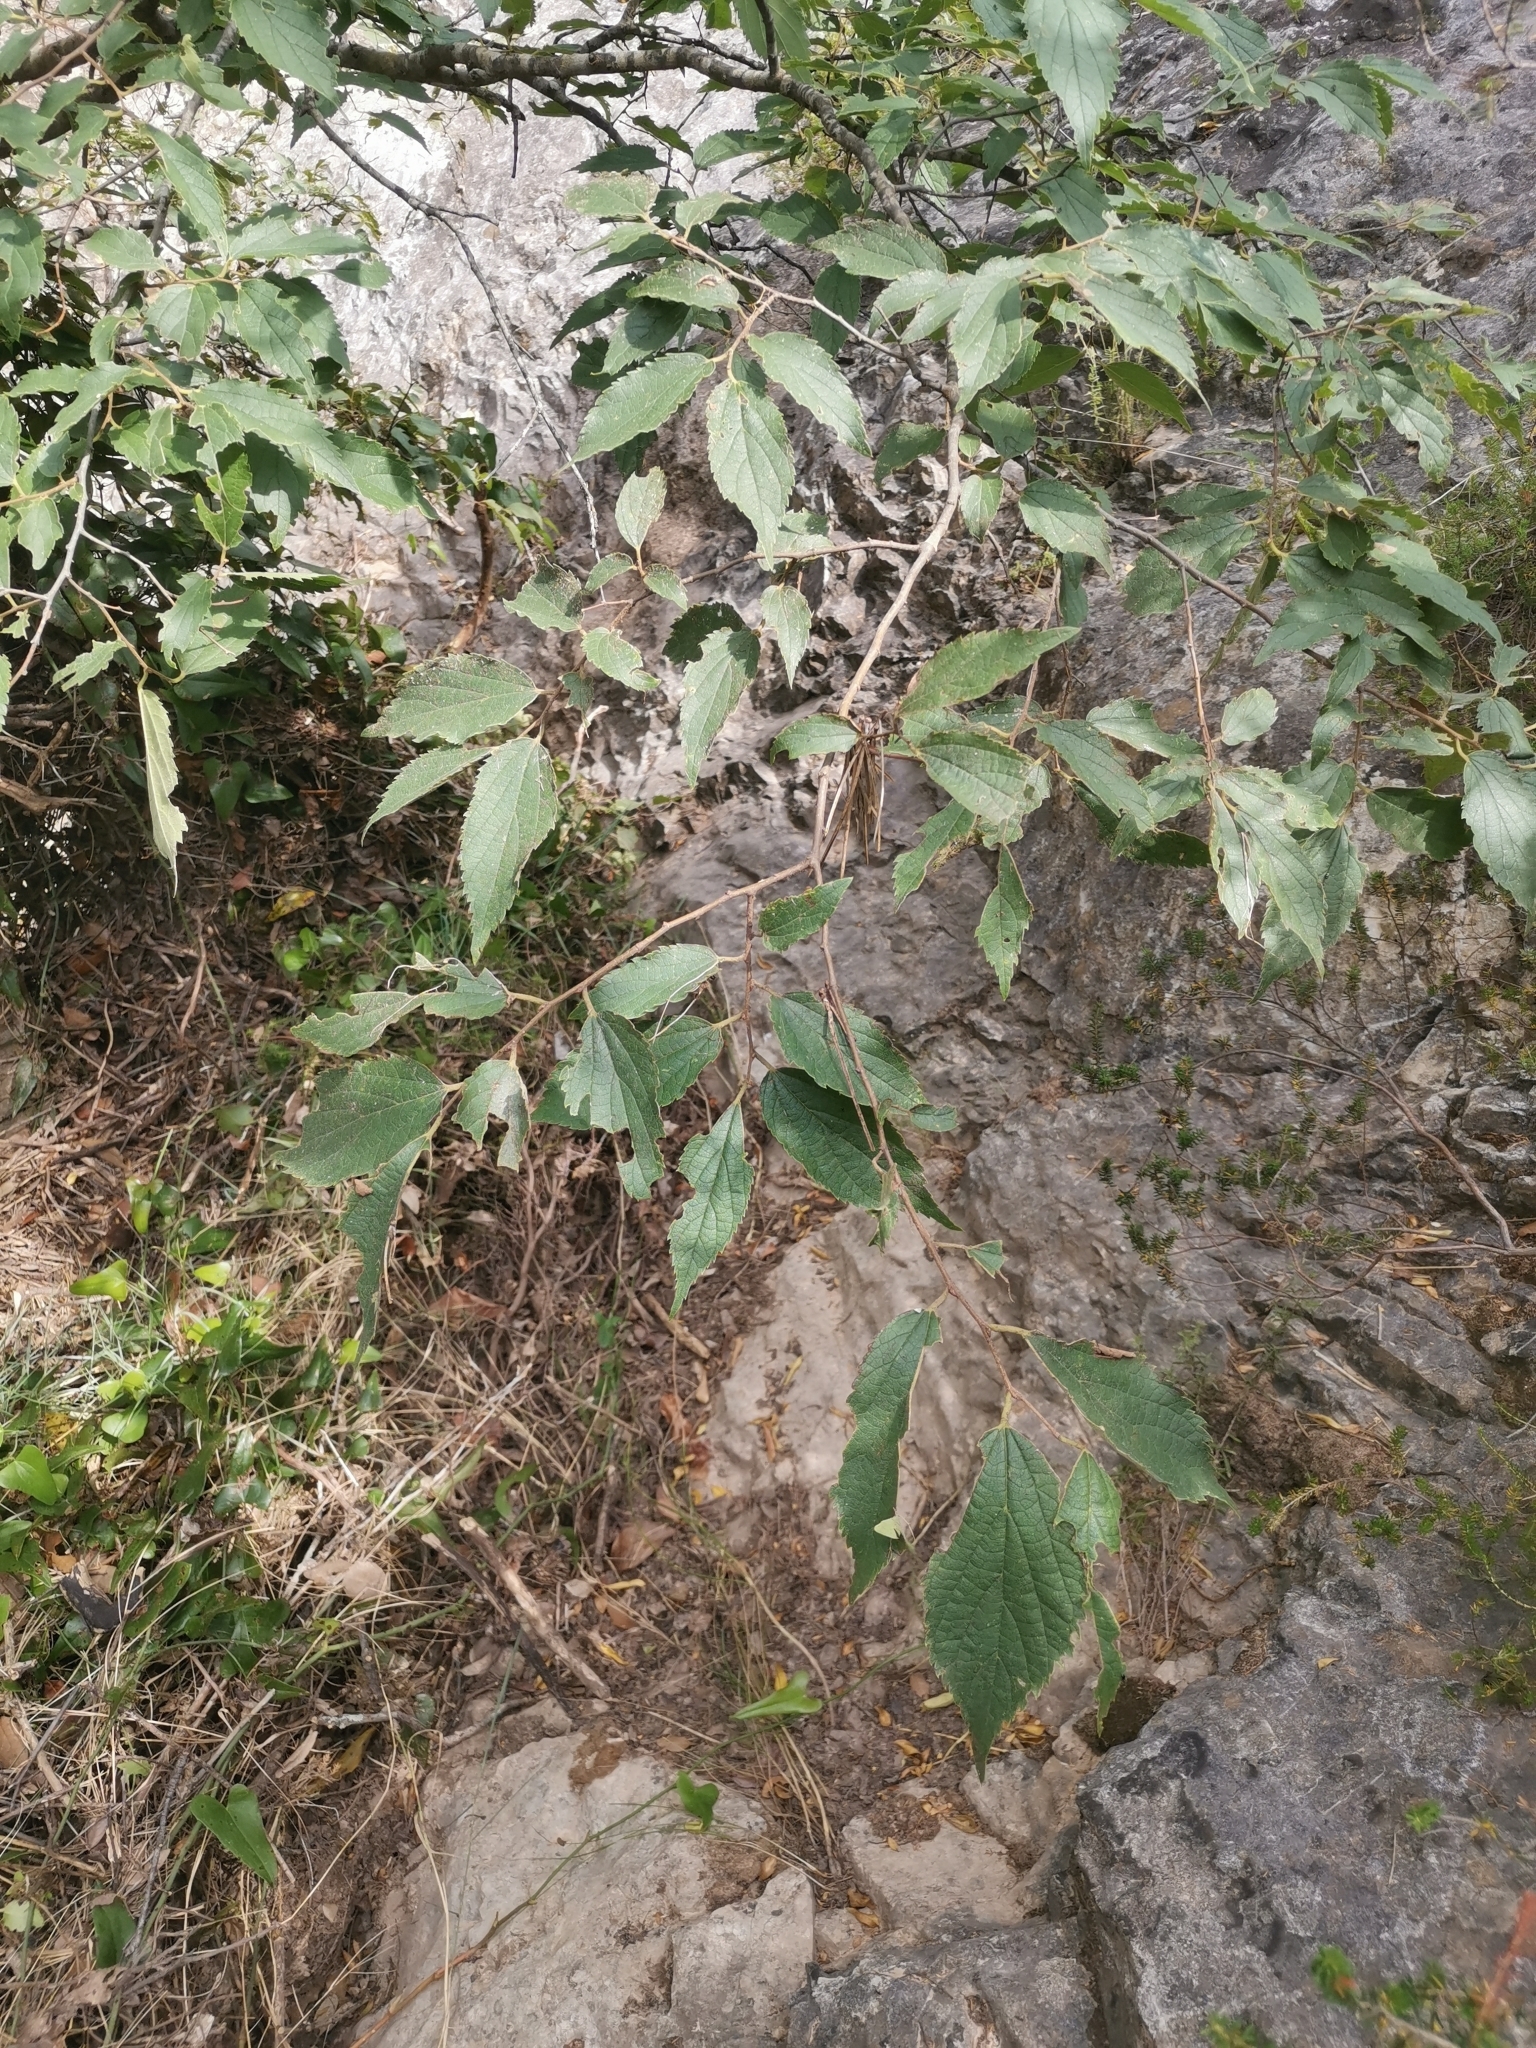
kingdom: Plantae
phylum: Tracheophyta
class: Magnoliopsida
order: Rosales
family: Cannabaceae
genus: Celtis
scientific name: Celtis australis
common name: European hackberry
